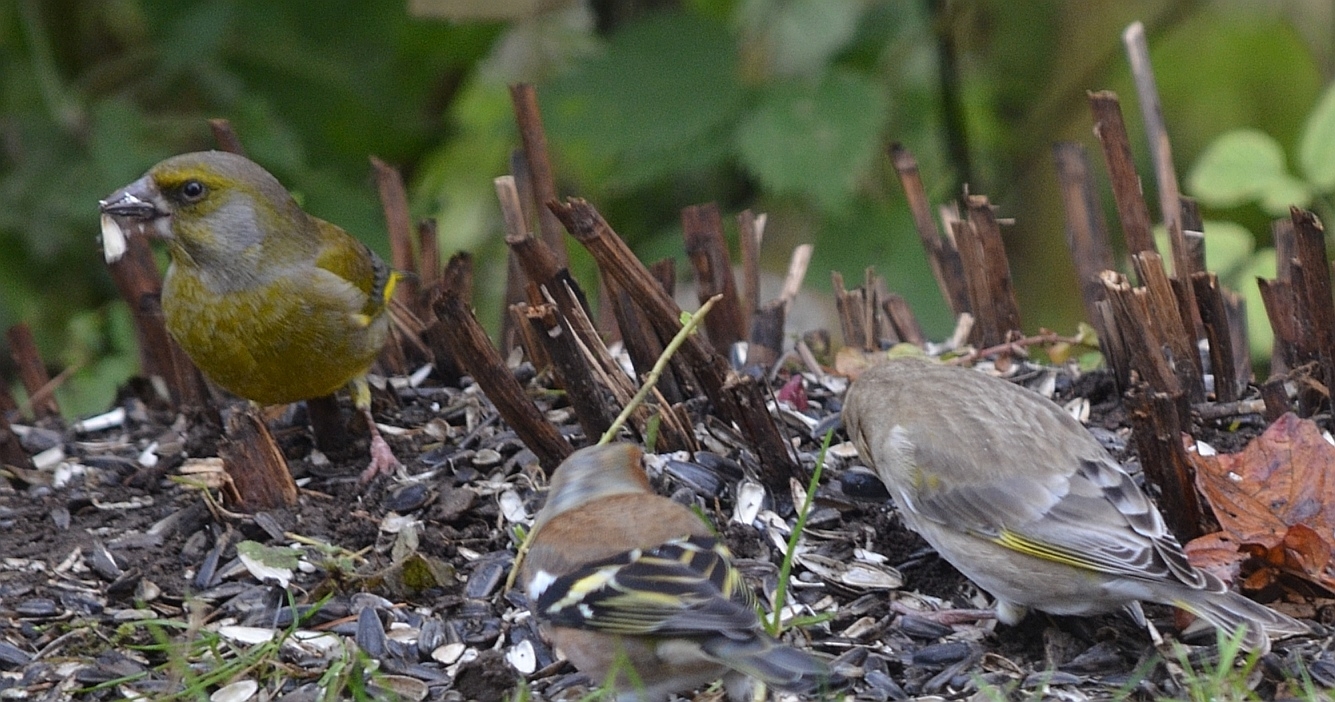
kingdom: Plantae
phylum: Tracheophyta
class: Liliopsida
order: Poales
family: Poaceae
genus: Chloris
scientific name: Chloris chloris
